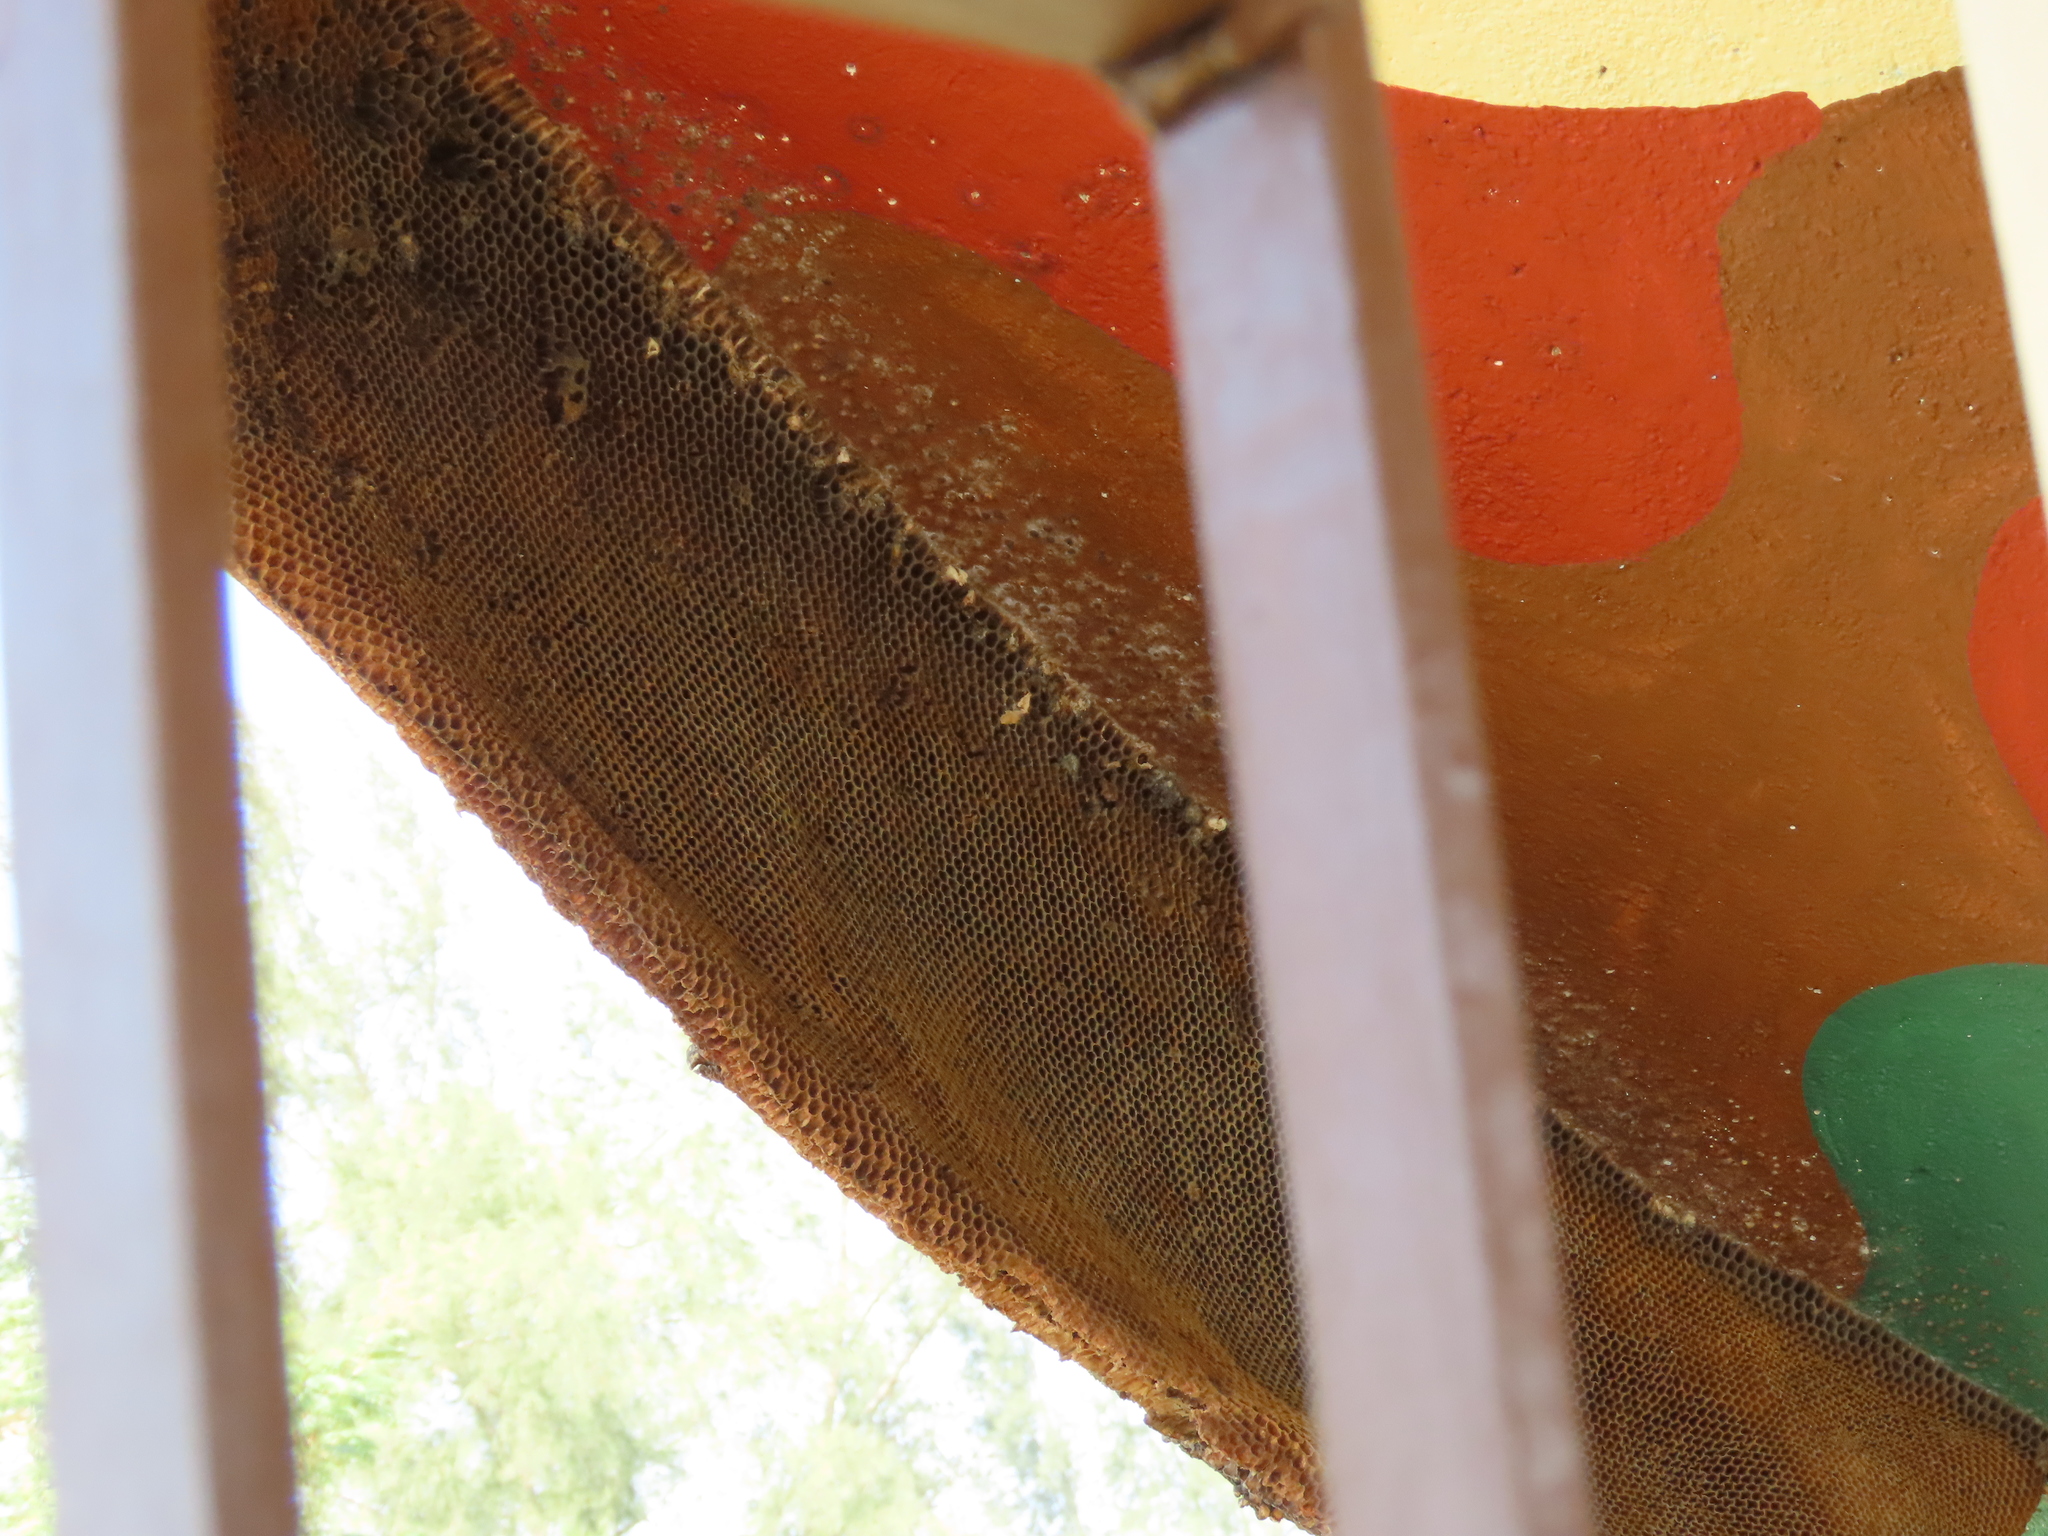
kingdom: Animalia
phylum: Arthropoda
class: Insecta
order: Hymenoptera
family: Apidae
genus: Apis
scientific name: Apis
